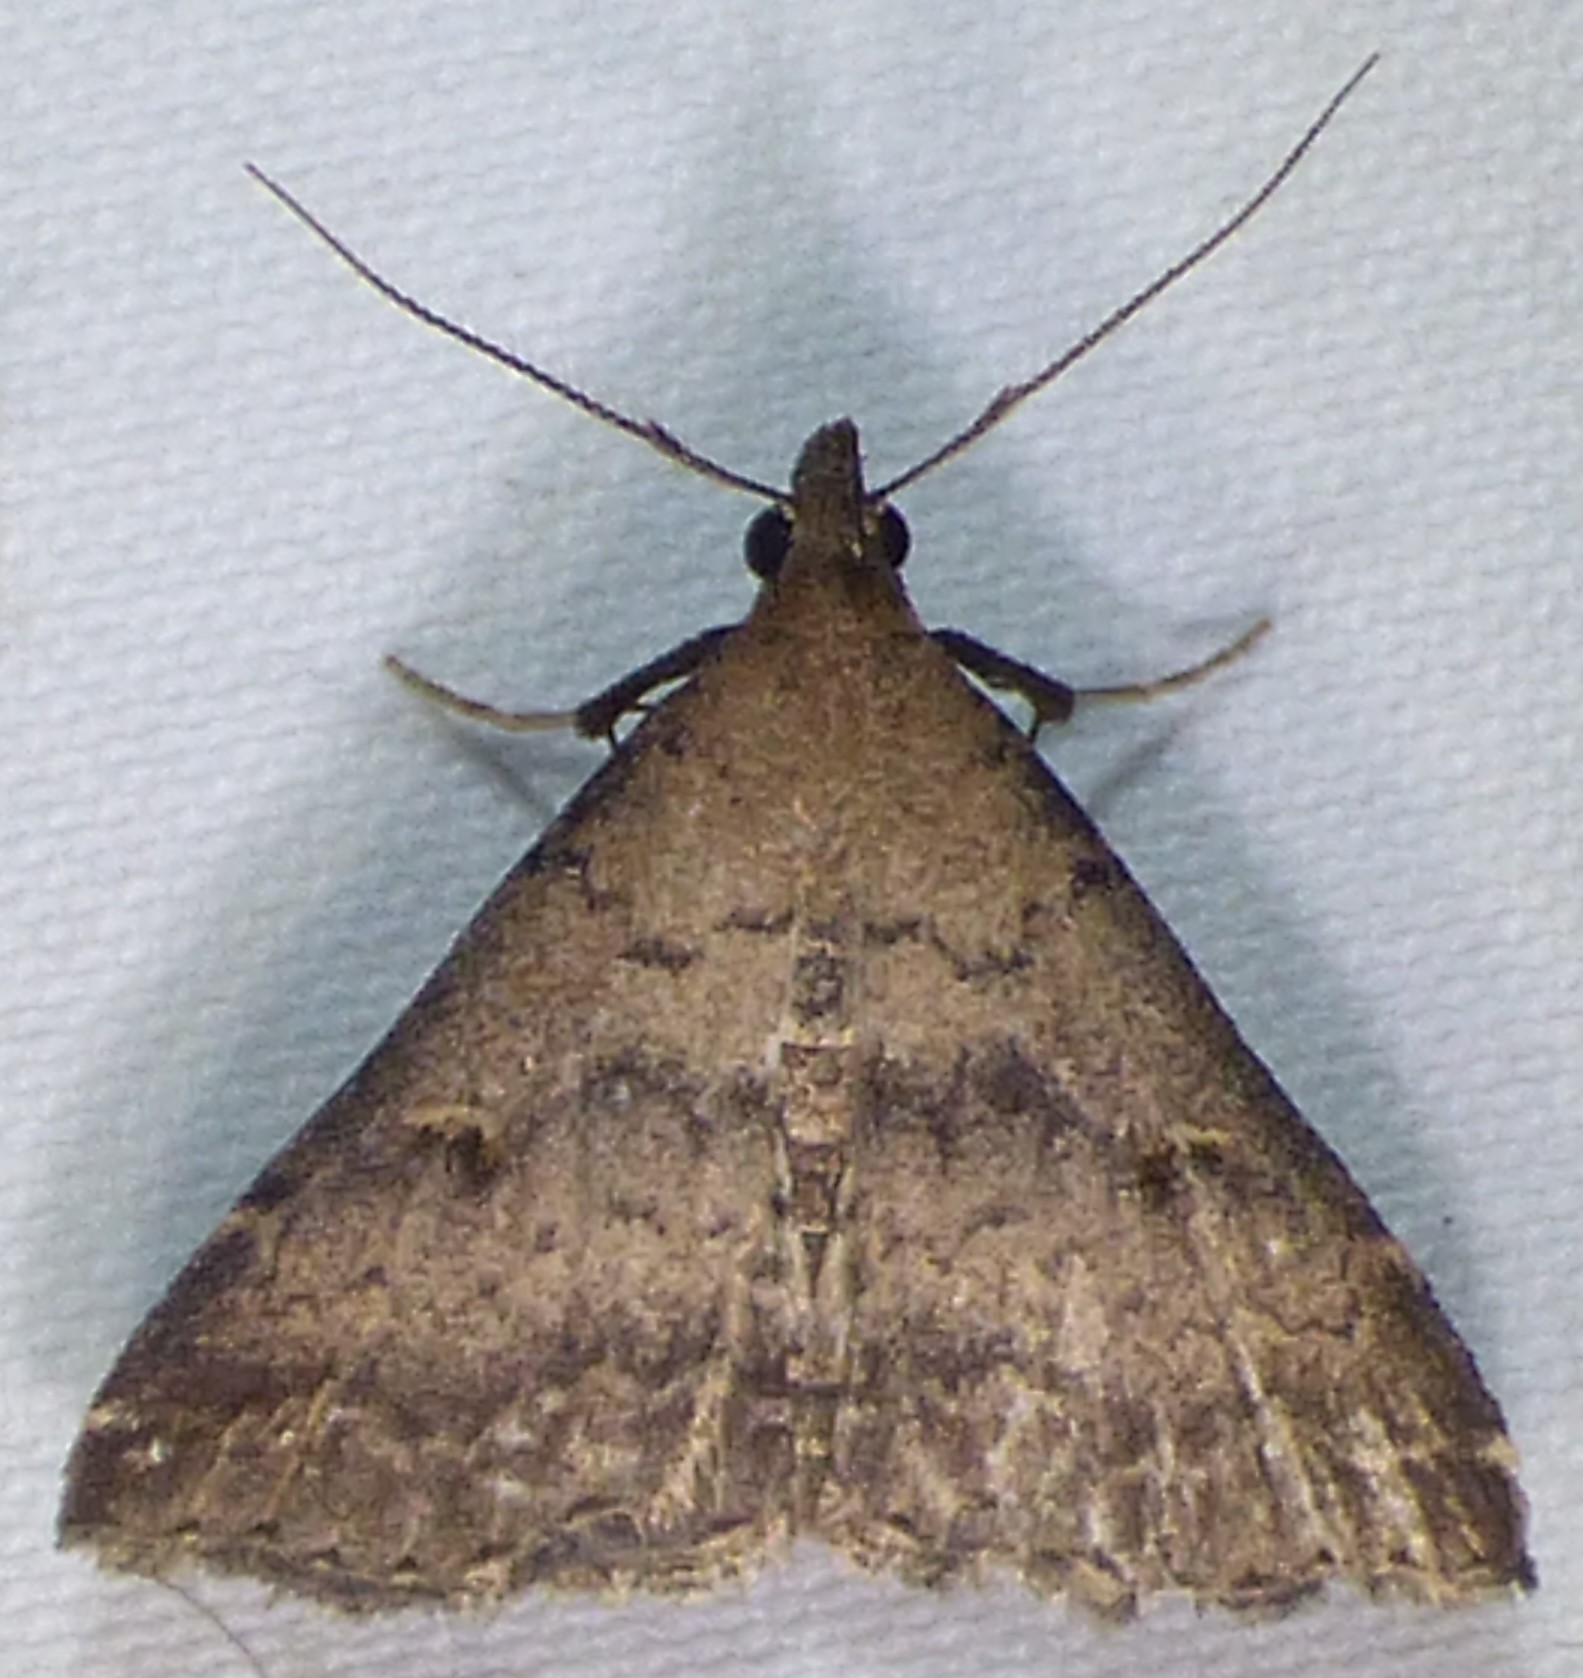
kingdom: Animalia
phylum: Arthropoda
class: Insecta
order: Lepidoptera
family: Erebidae
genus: Tetanolita
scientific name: Tetanolita floridana
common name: Florida tetanolita moth
